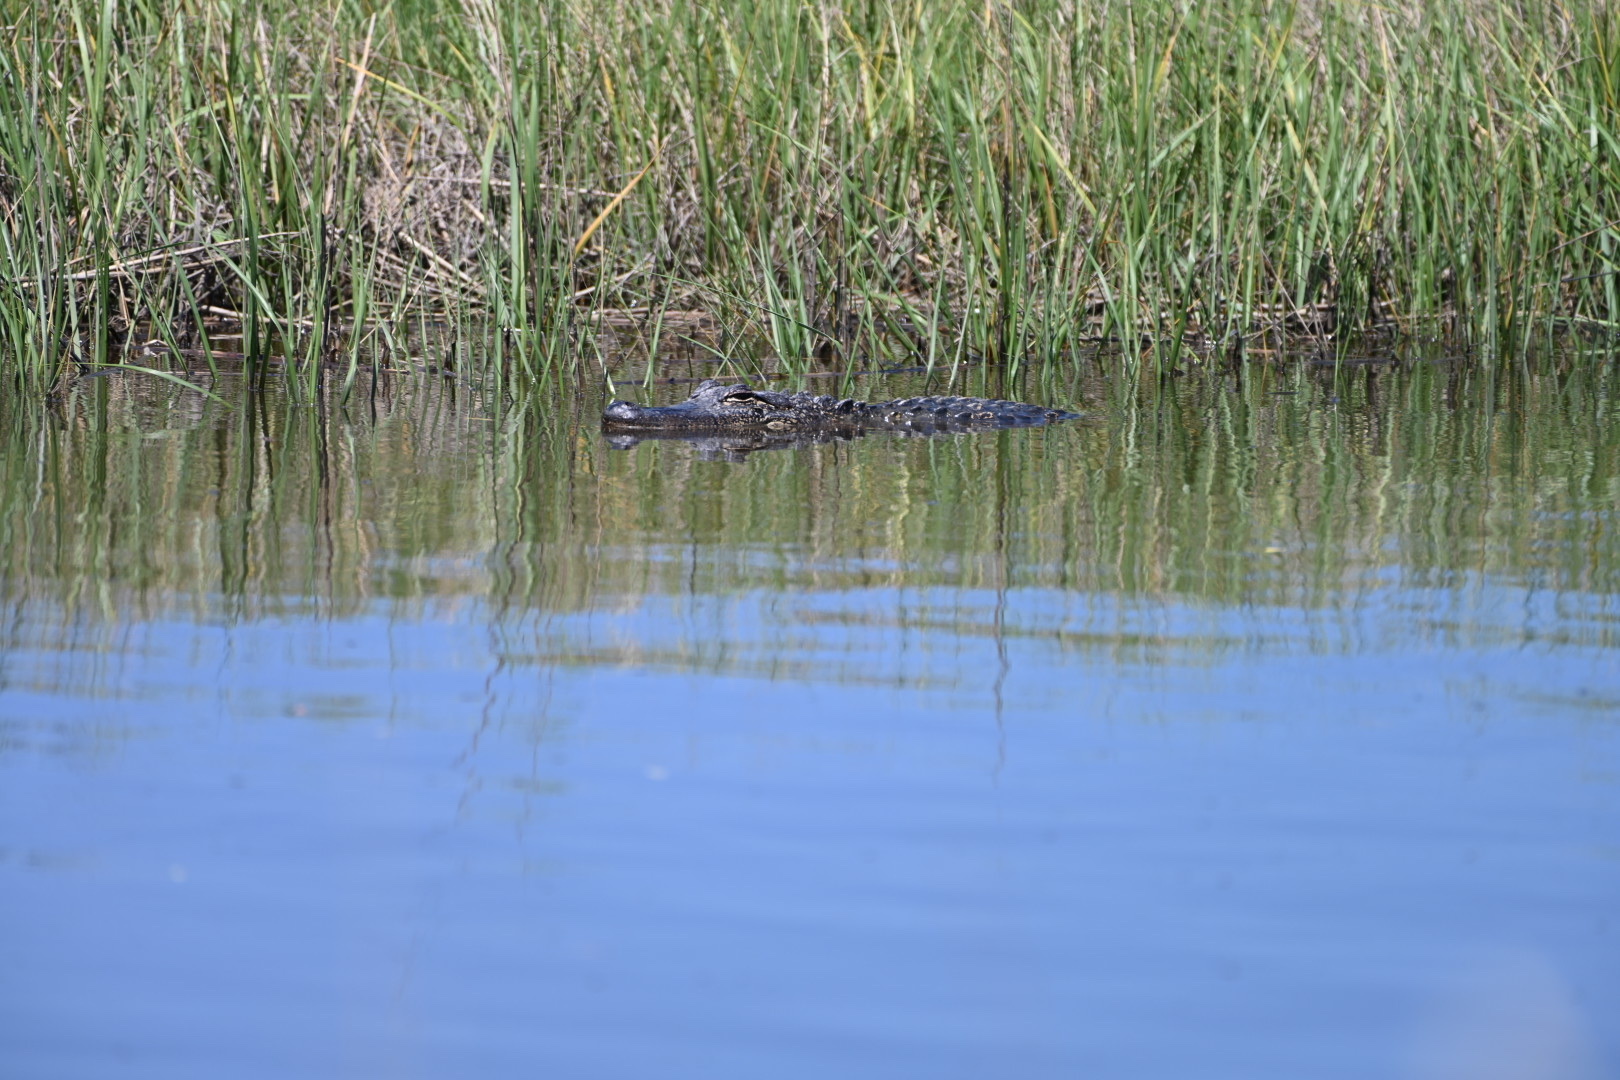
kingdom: Animalia
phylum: Chordata
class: Crocodylia
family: Alligatoridae
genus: Alligator
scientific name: Alligator mississippiensis
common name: American alligator
